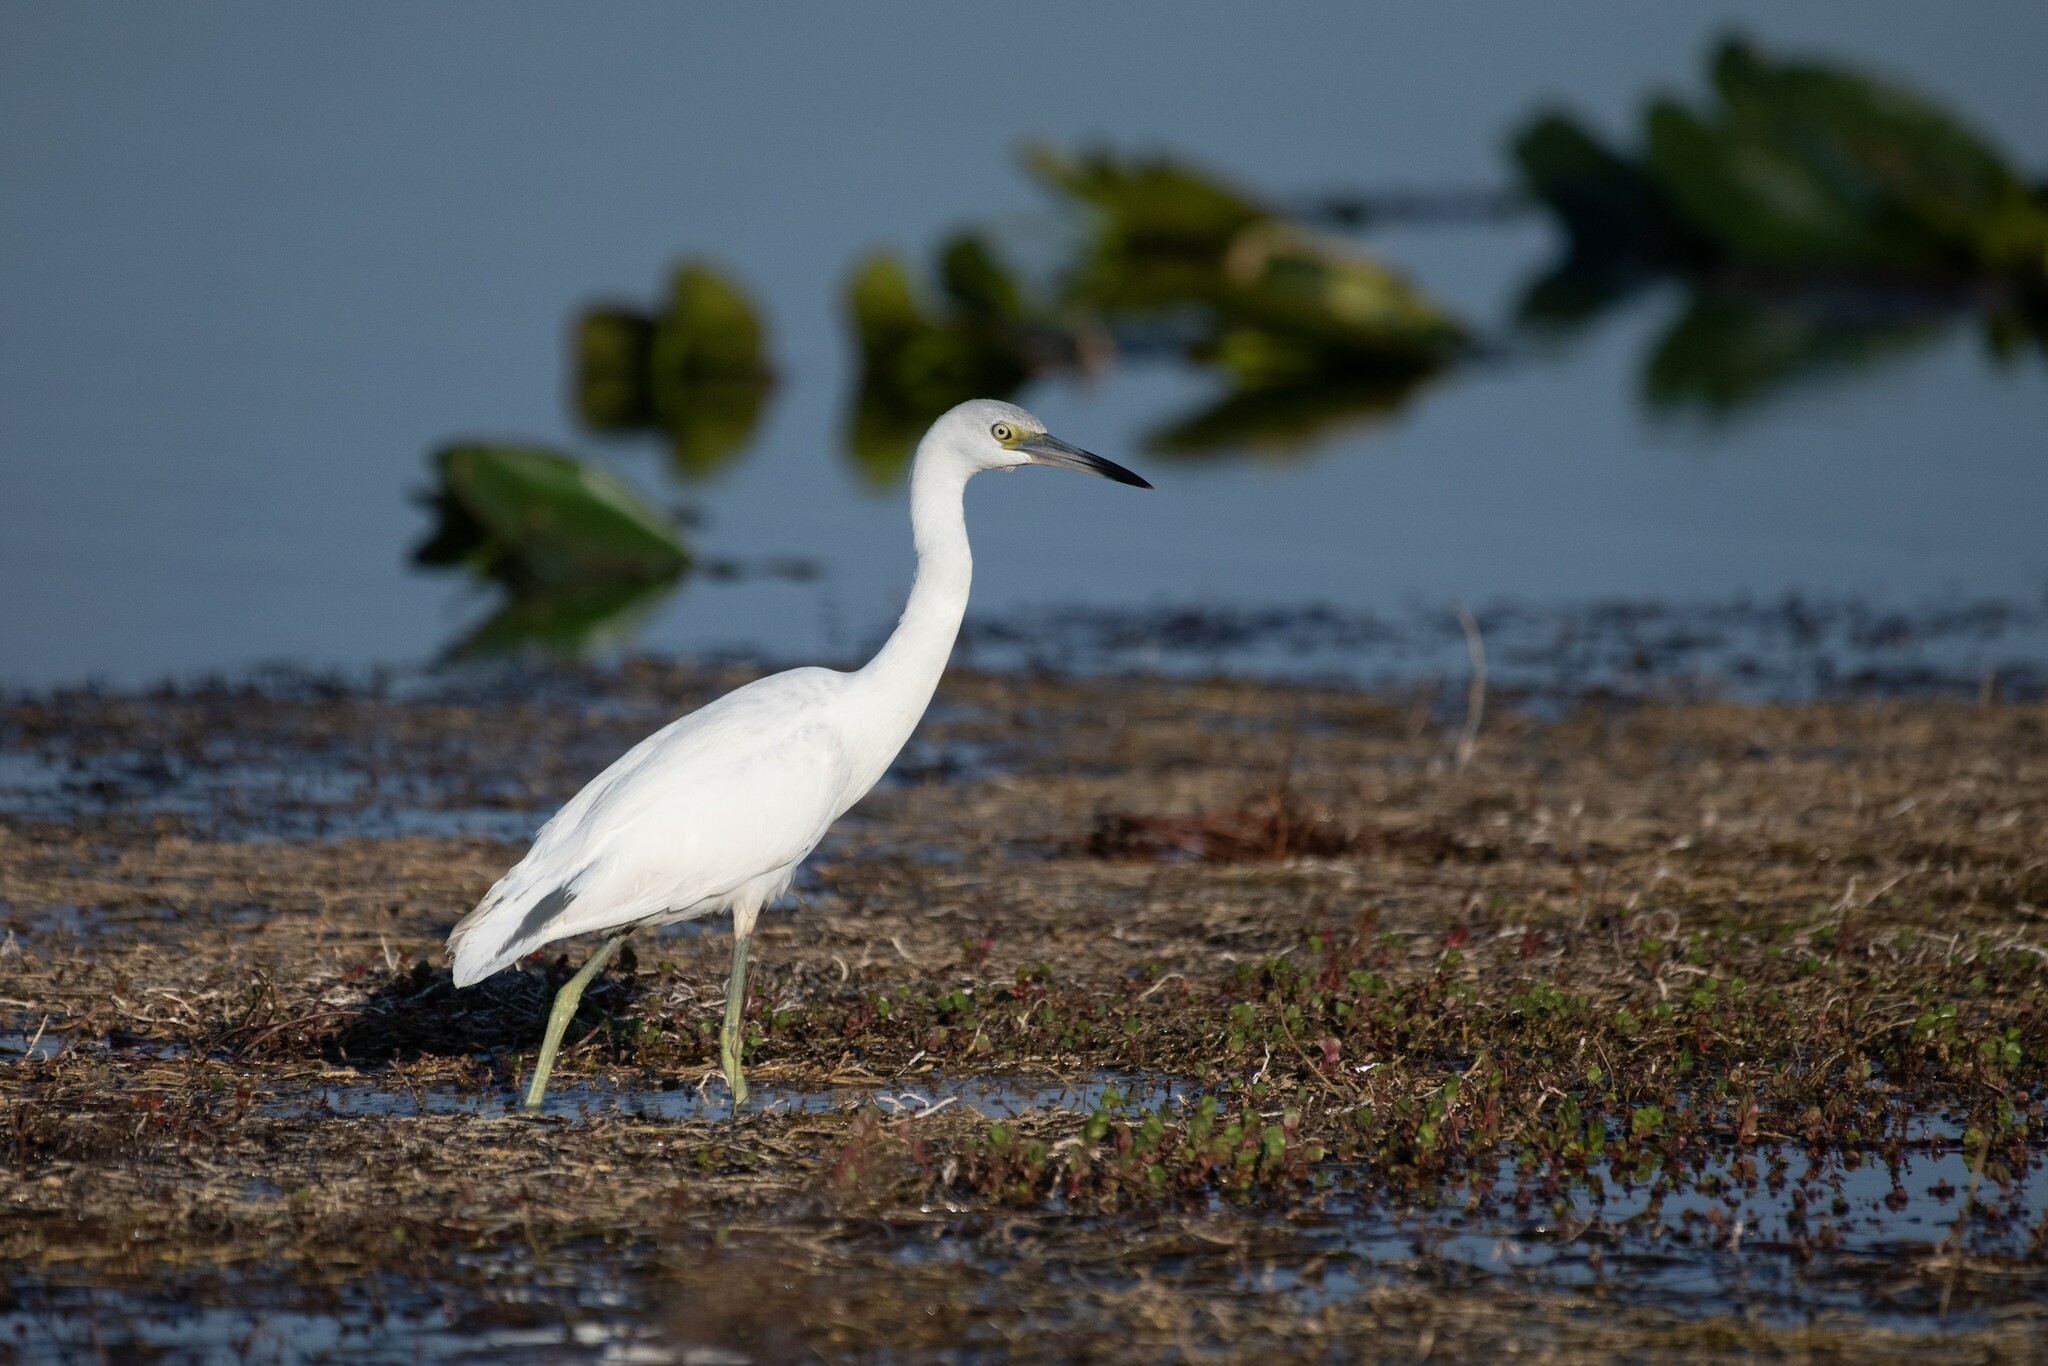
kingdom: Animalia
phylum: Chordata
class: Aves
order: Pelecaniformes
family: Ardeidae
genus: Egretta
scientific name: Egretta caerulea
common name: Little blue heron
